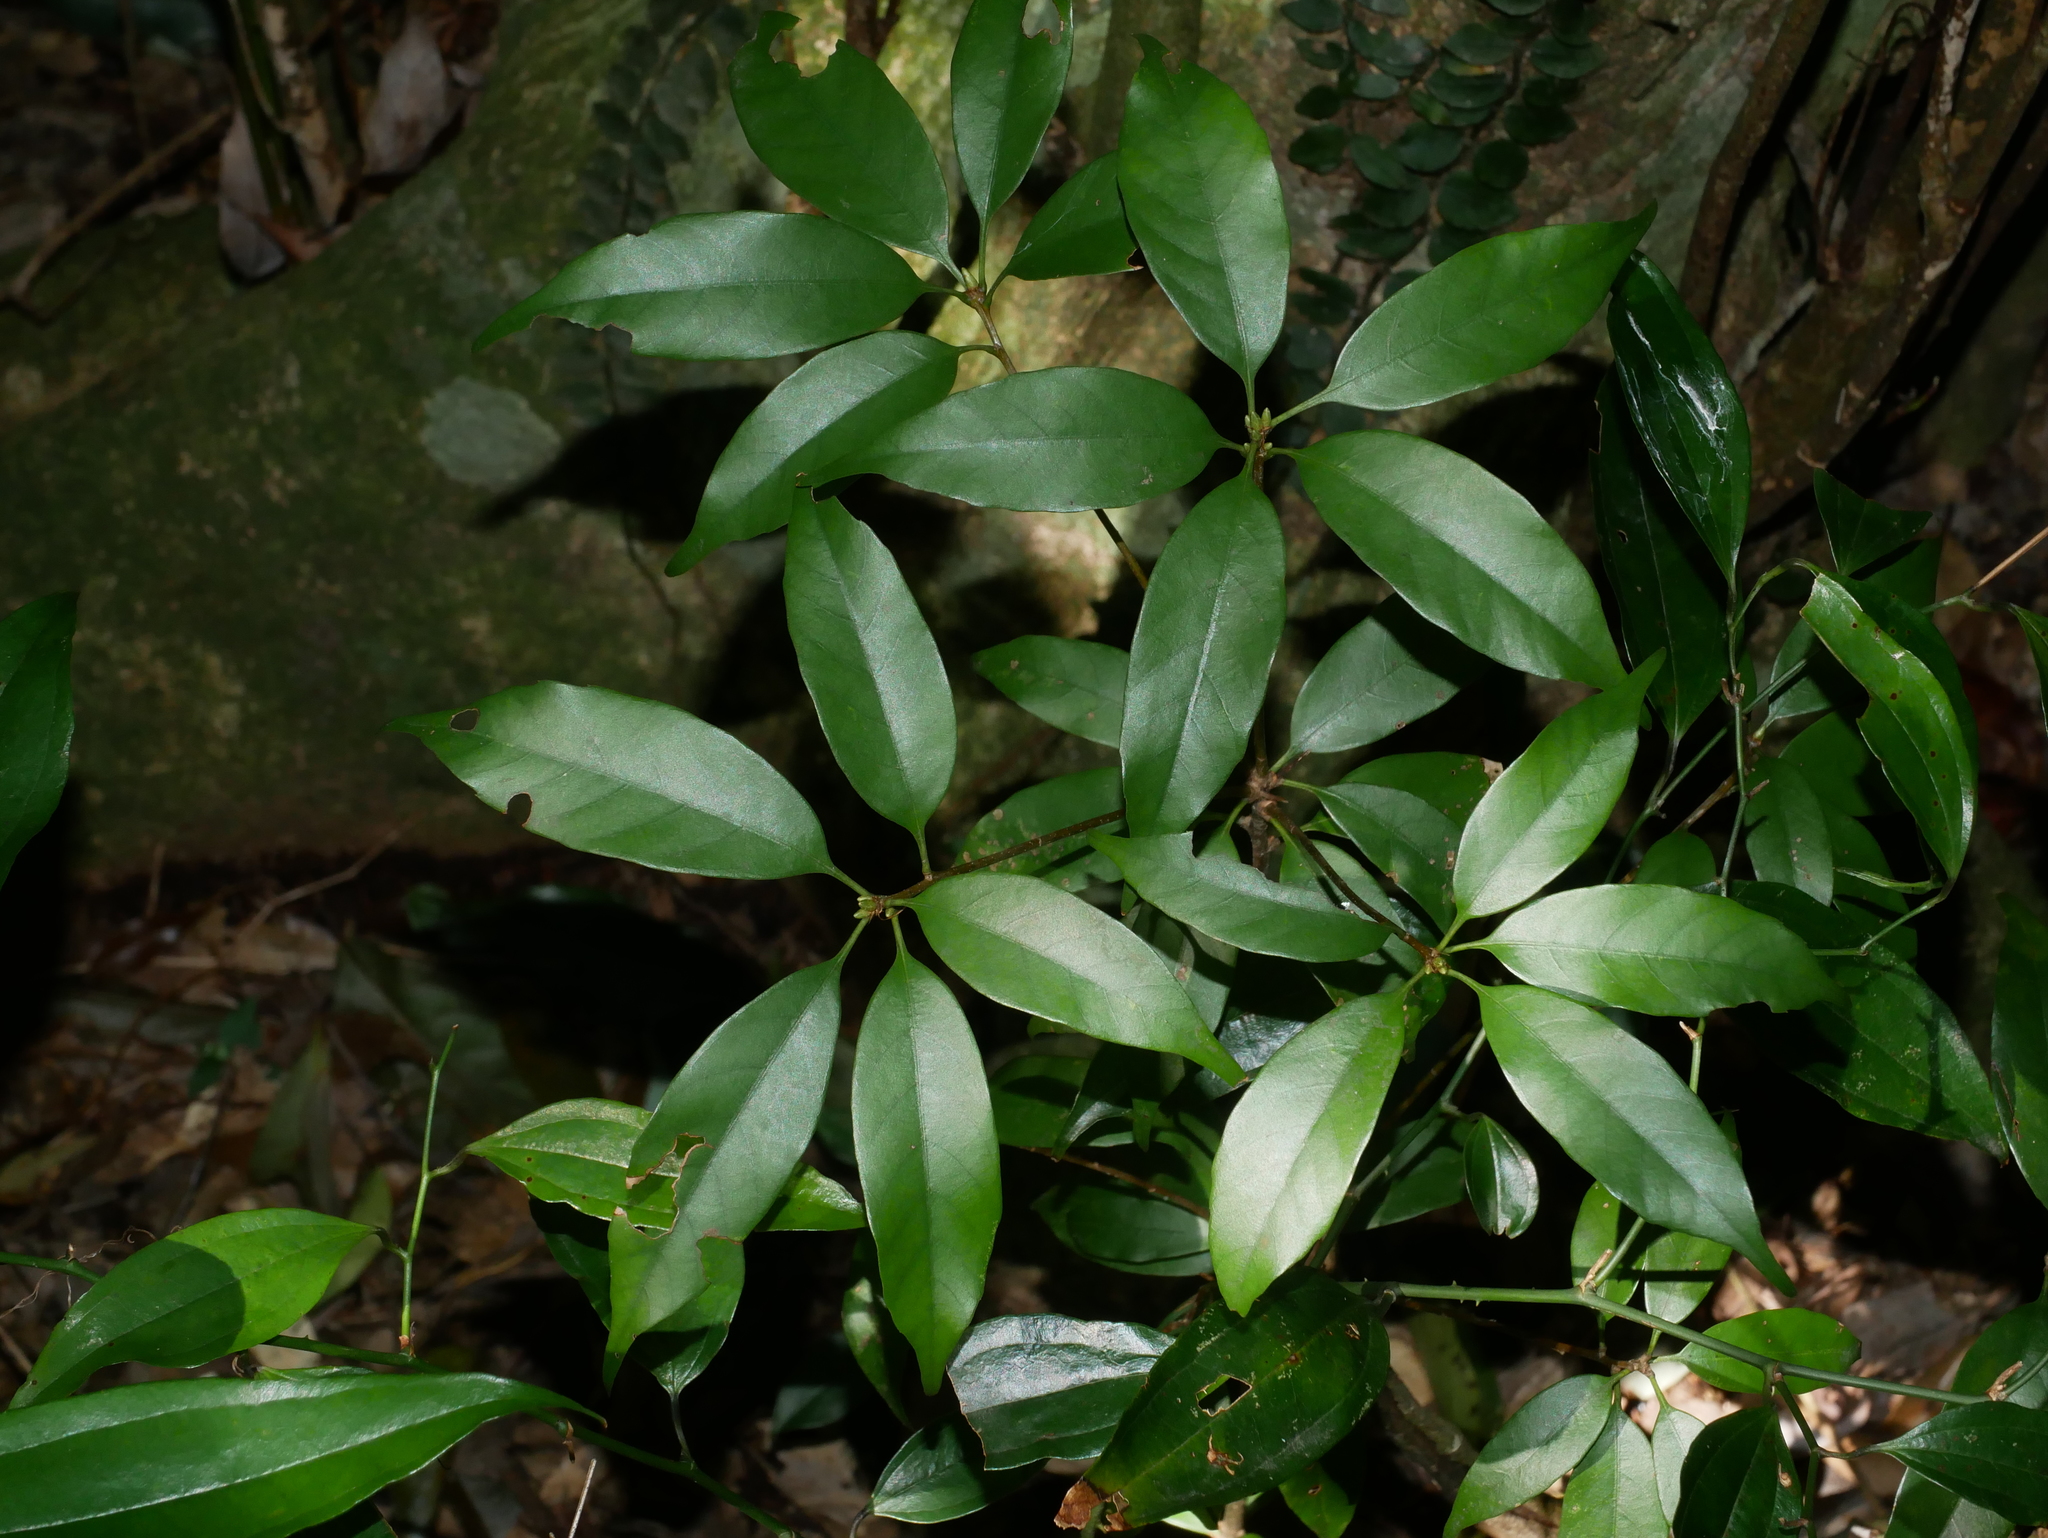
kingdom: Plantae
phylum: Tracheophyta
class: Magnoliopsida
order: Fagales
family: Fagaceae
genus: Quercus
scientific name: Quercus longinux
